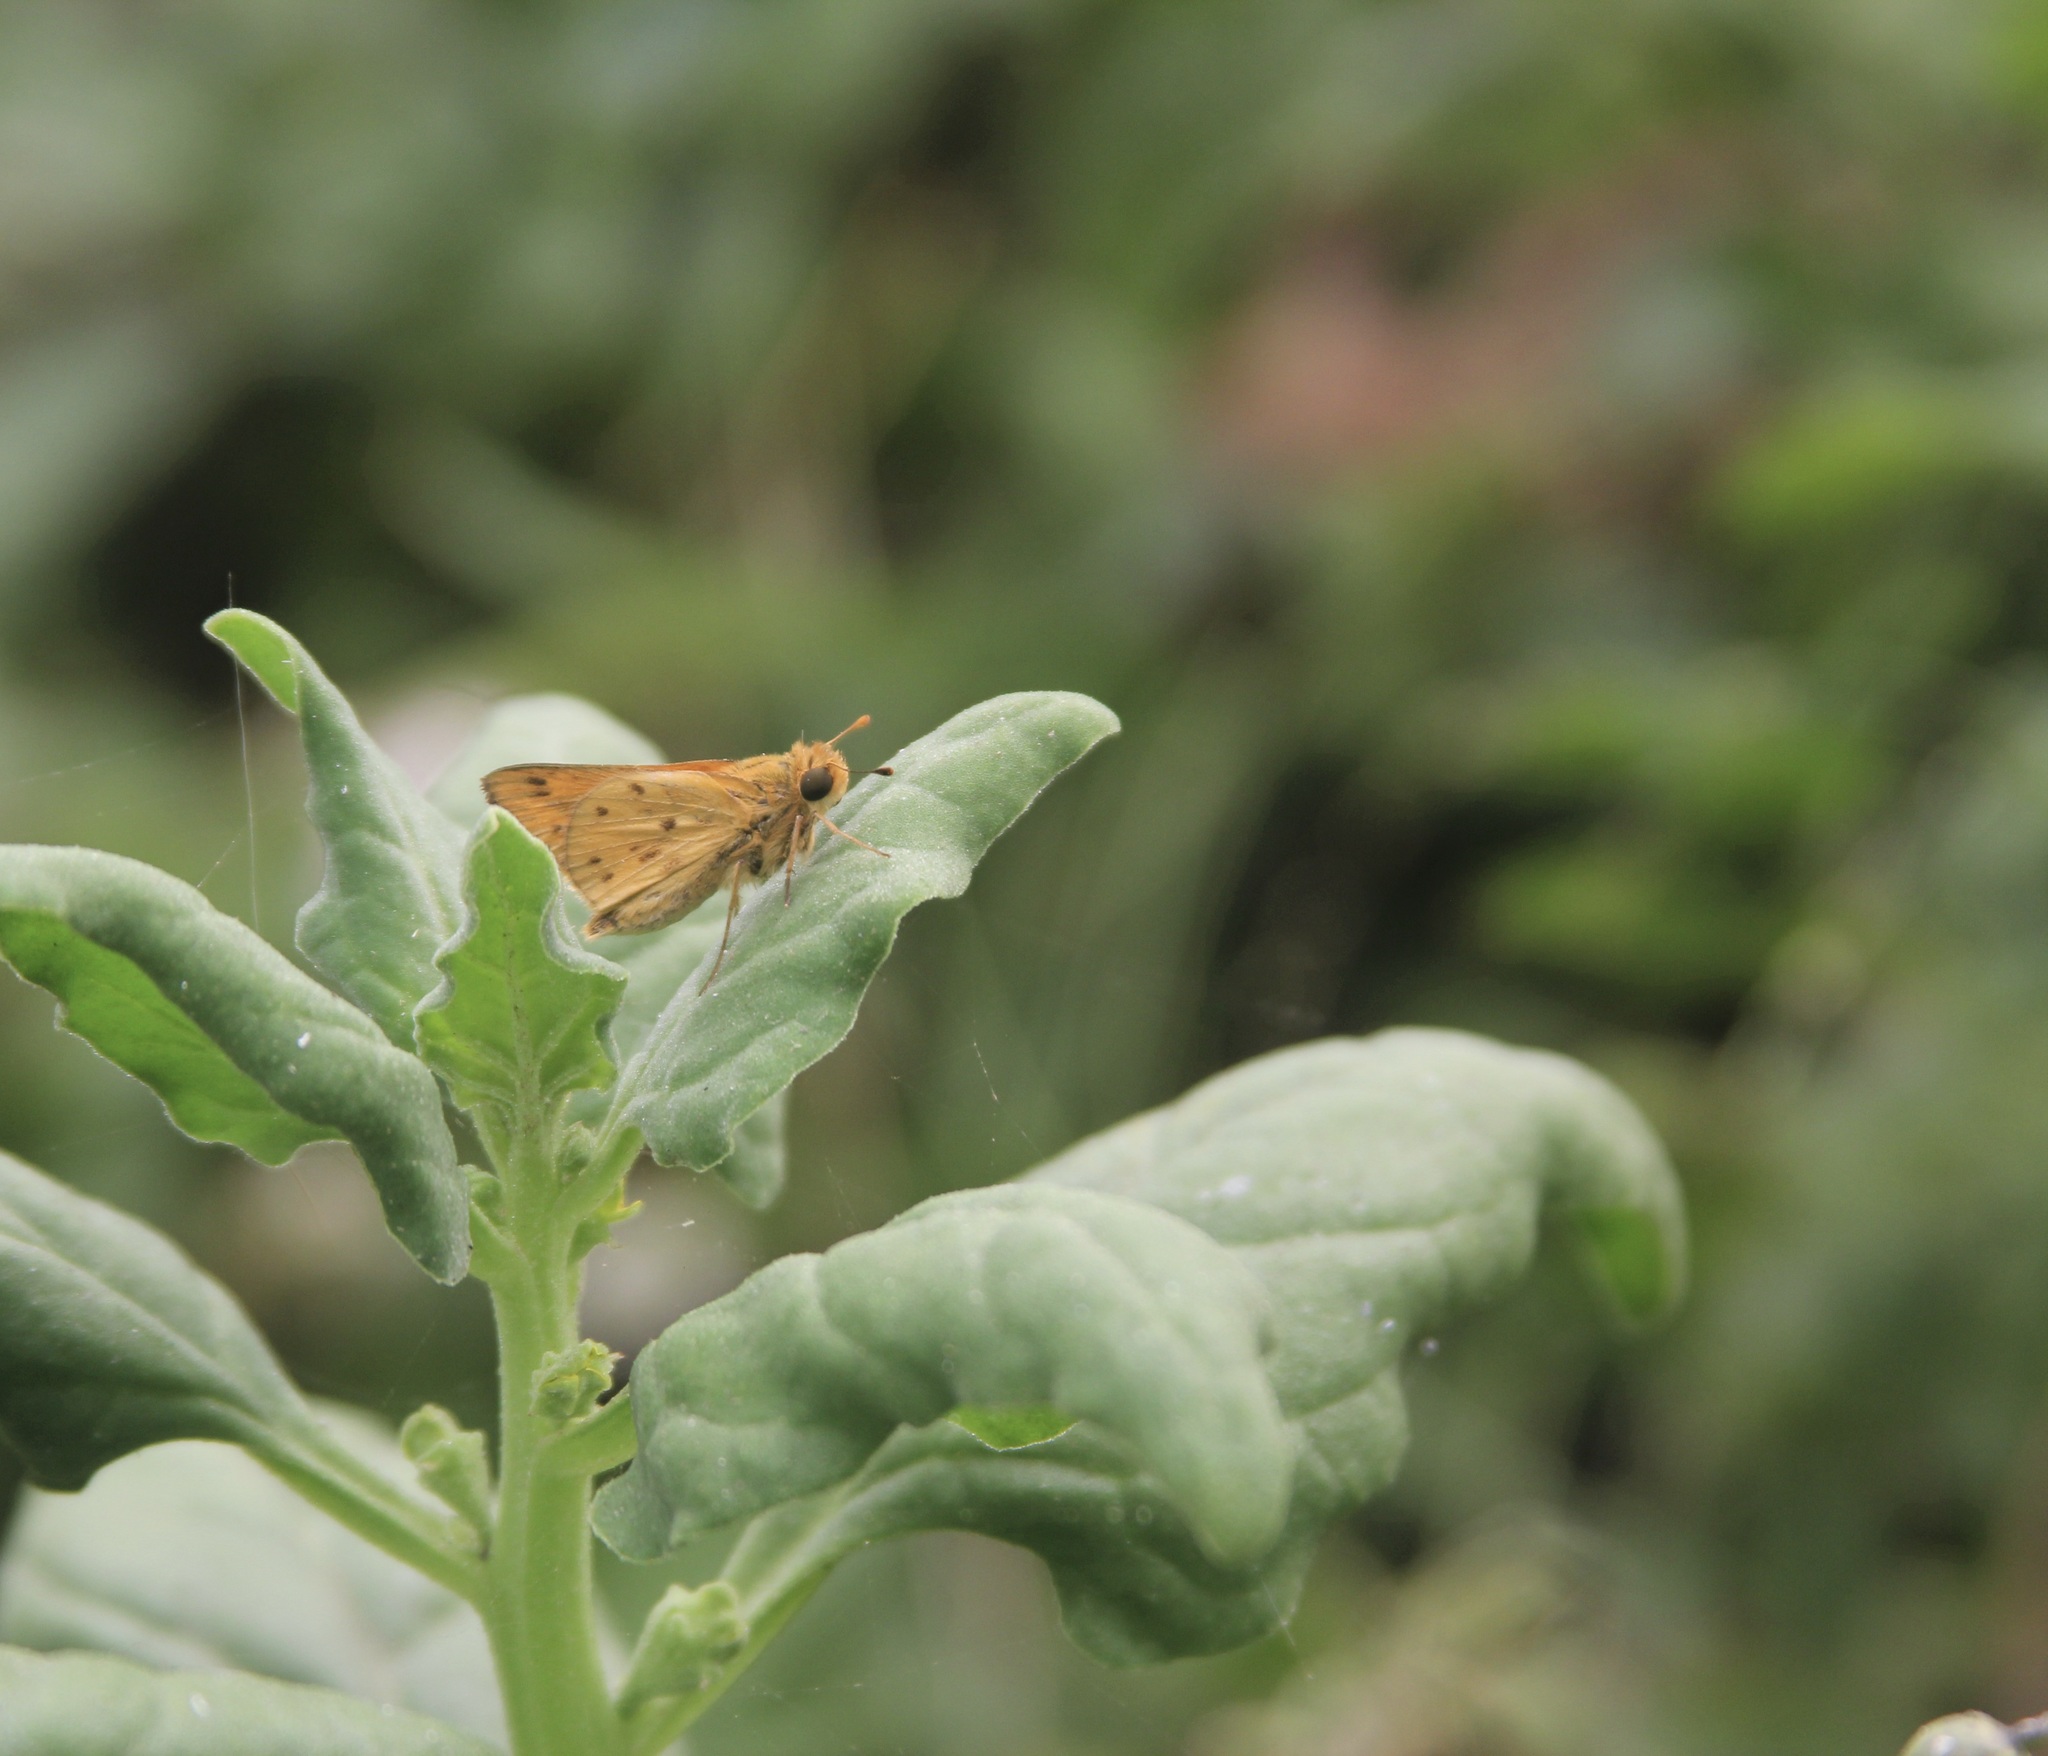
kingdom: Animalia
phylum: Arthropoda
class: Insecta
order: Lepidoptera
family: Hesperiidae
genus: Hylephila
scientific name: Hylephila phyleus
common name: Fiery skipper
